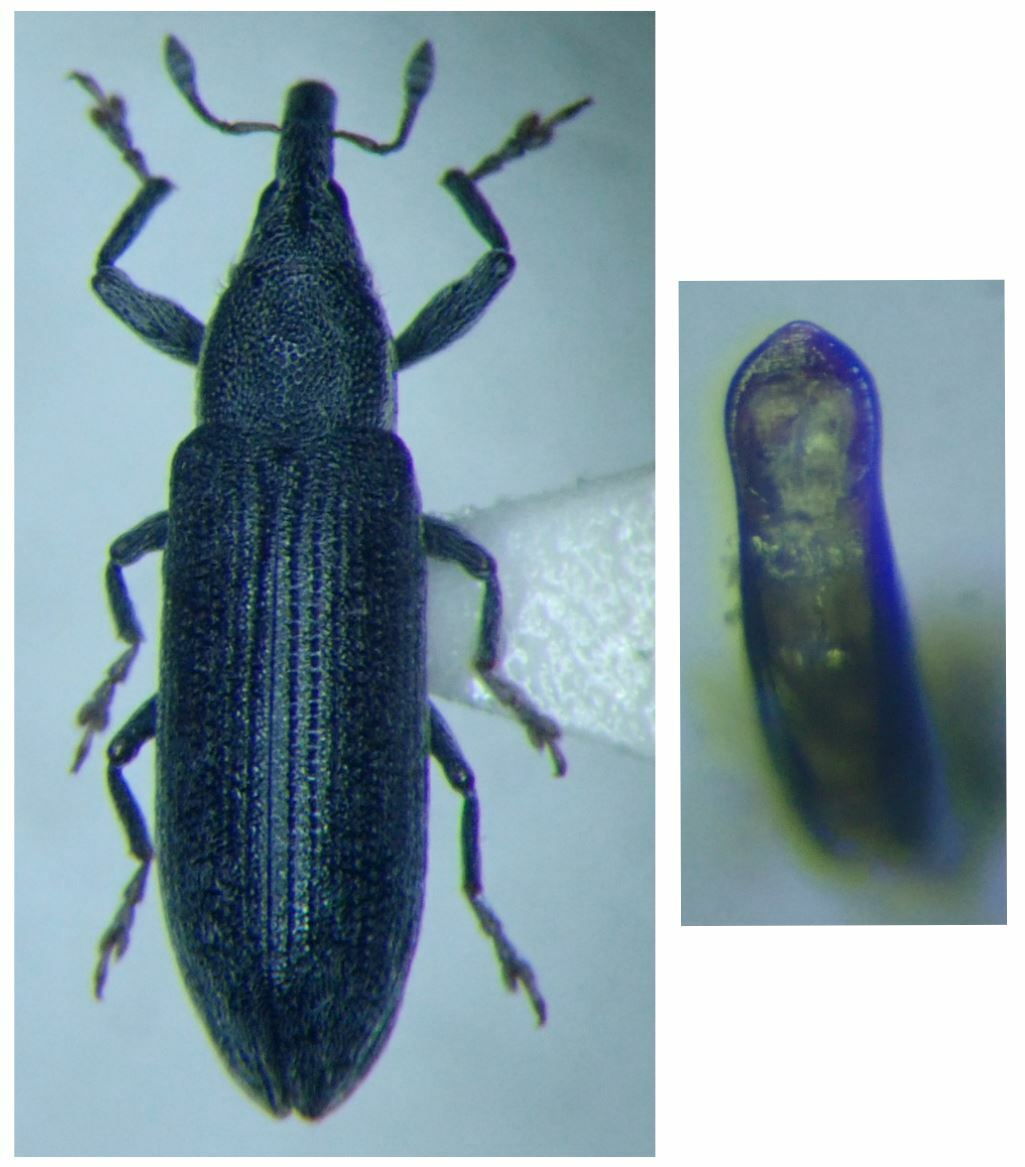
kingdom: Animalia
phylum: Arthropoda
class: Insecta
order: Coleoptera
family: Curculionidae
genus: Lixus
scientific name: Lixus filiformis
